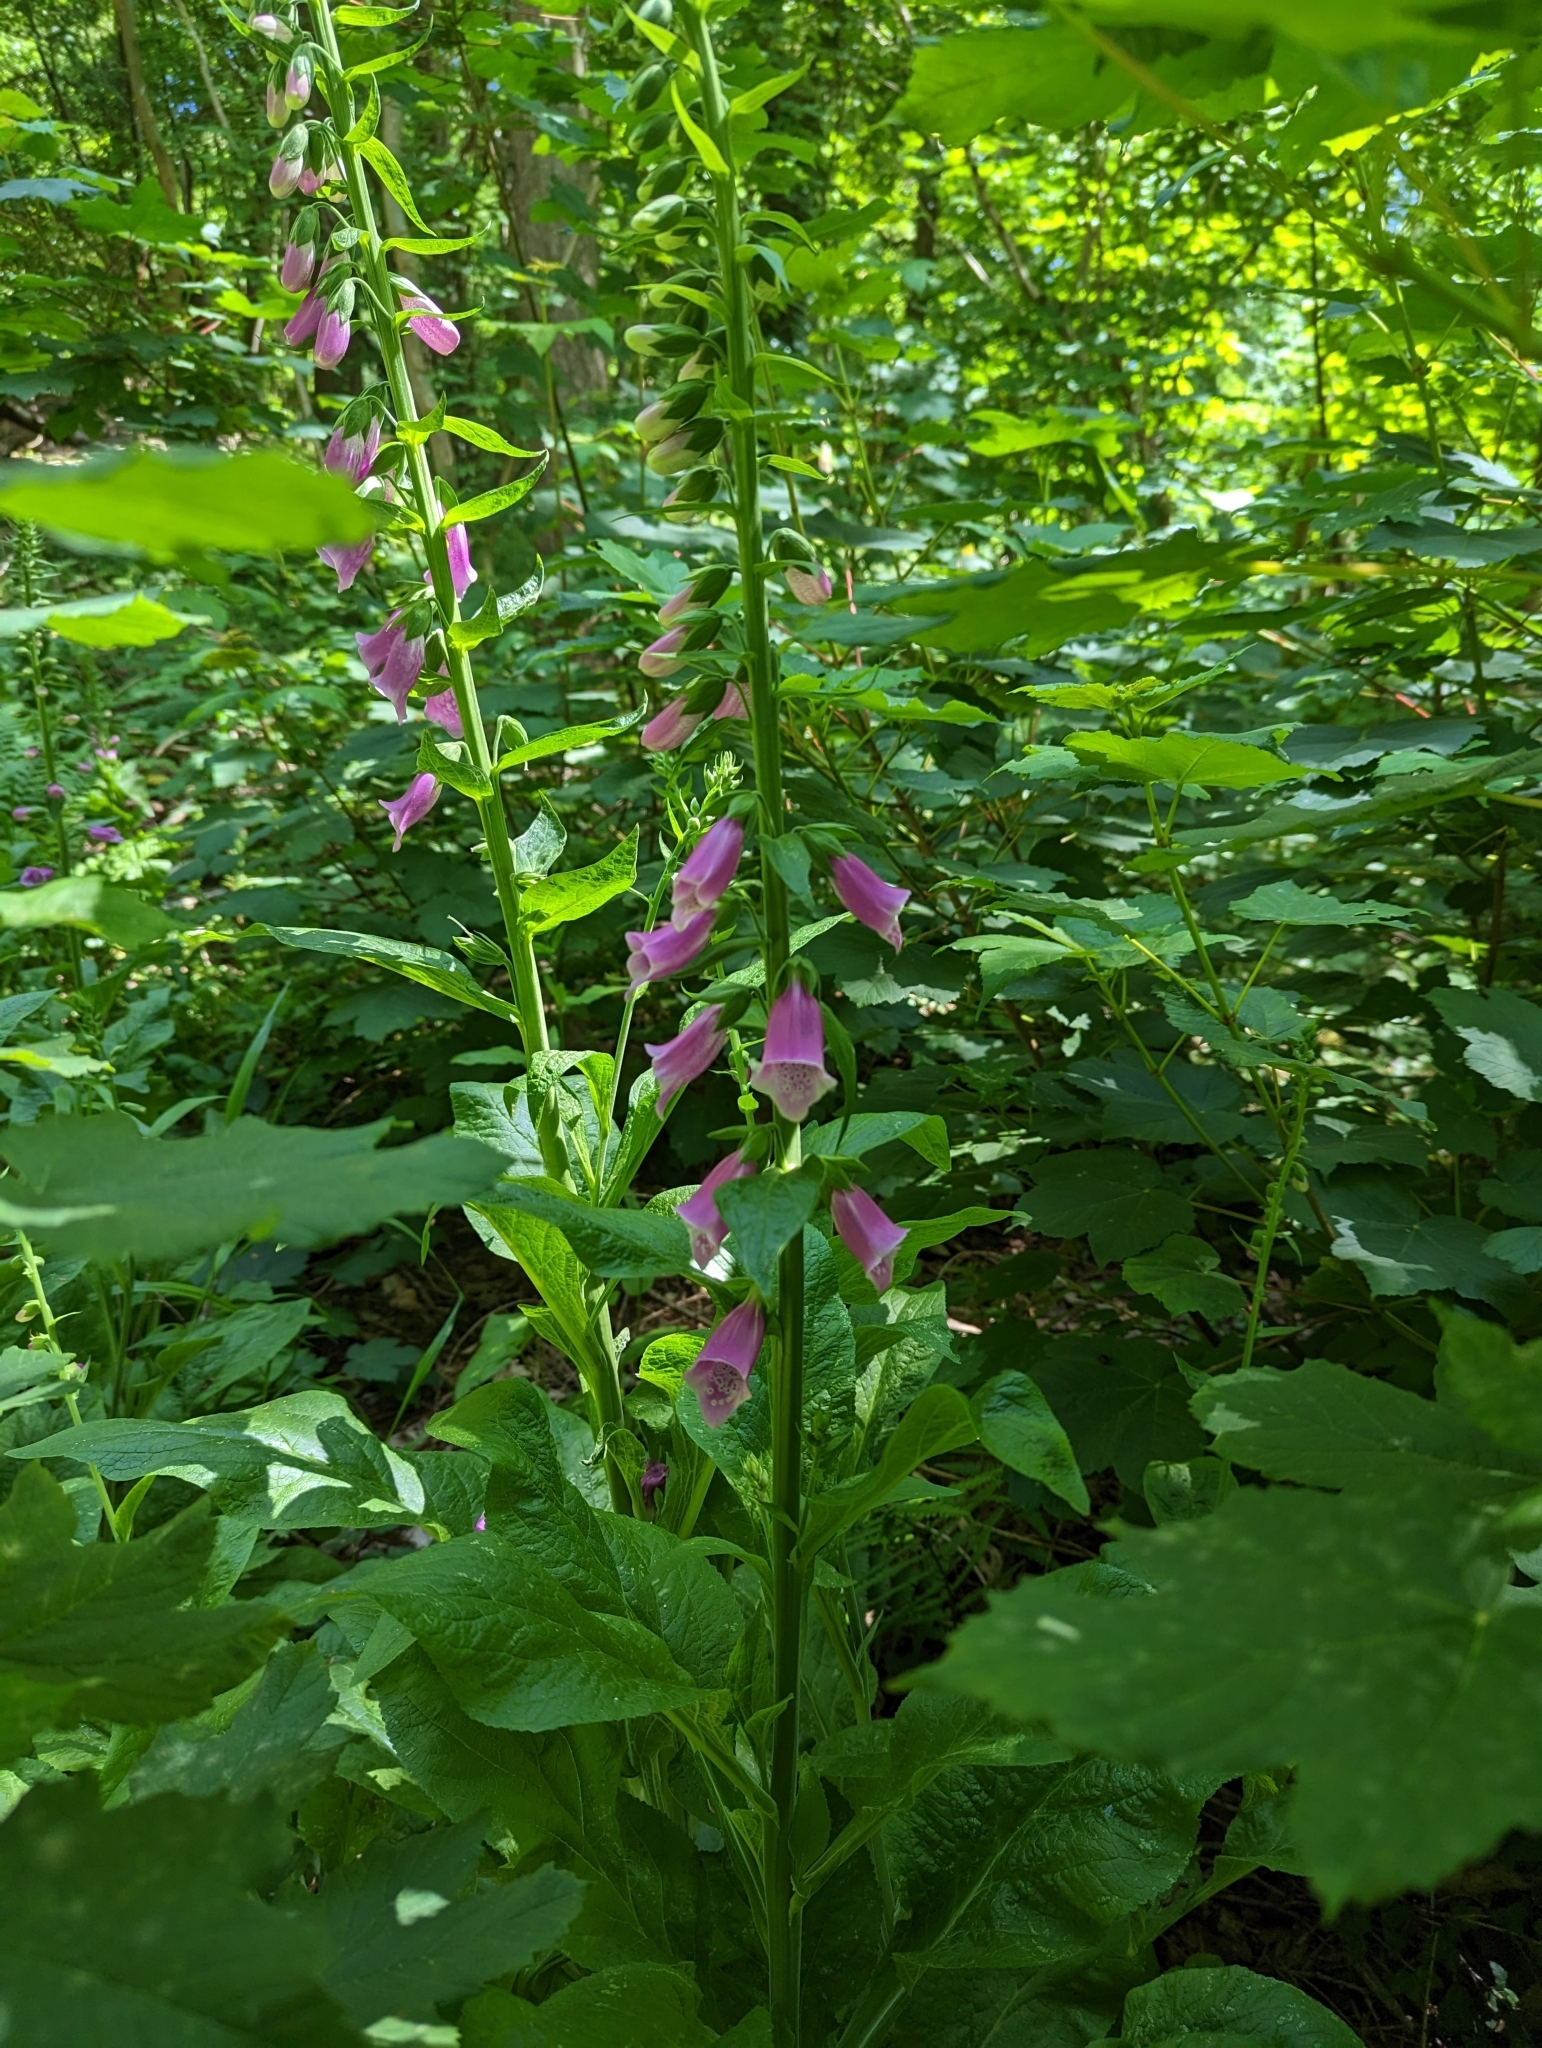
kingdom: Plantae
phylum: Tracheophyta
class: Magnoliopsida
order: Lamiales
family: Plantaginaceae
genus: Digitalis
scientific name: Digitalis purpurea
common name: Foxglove
